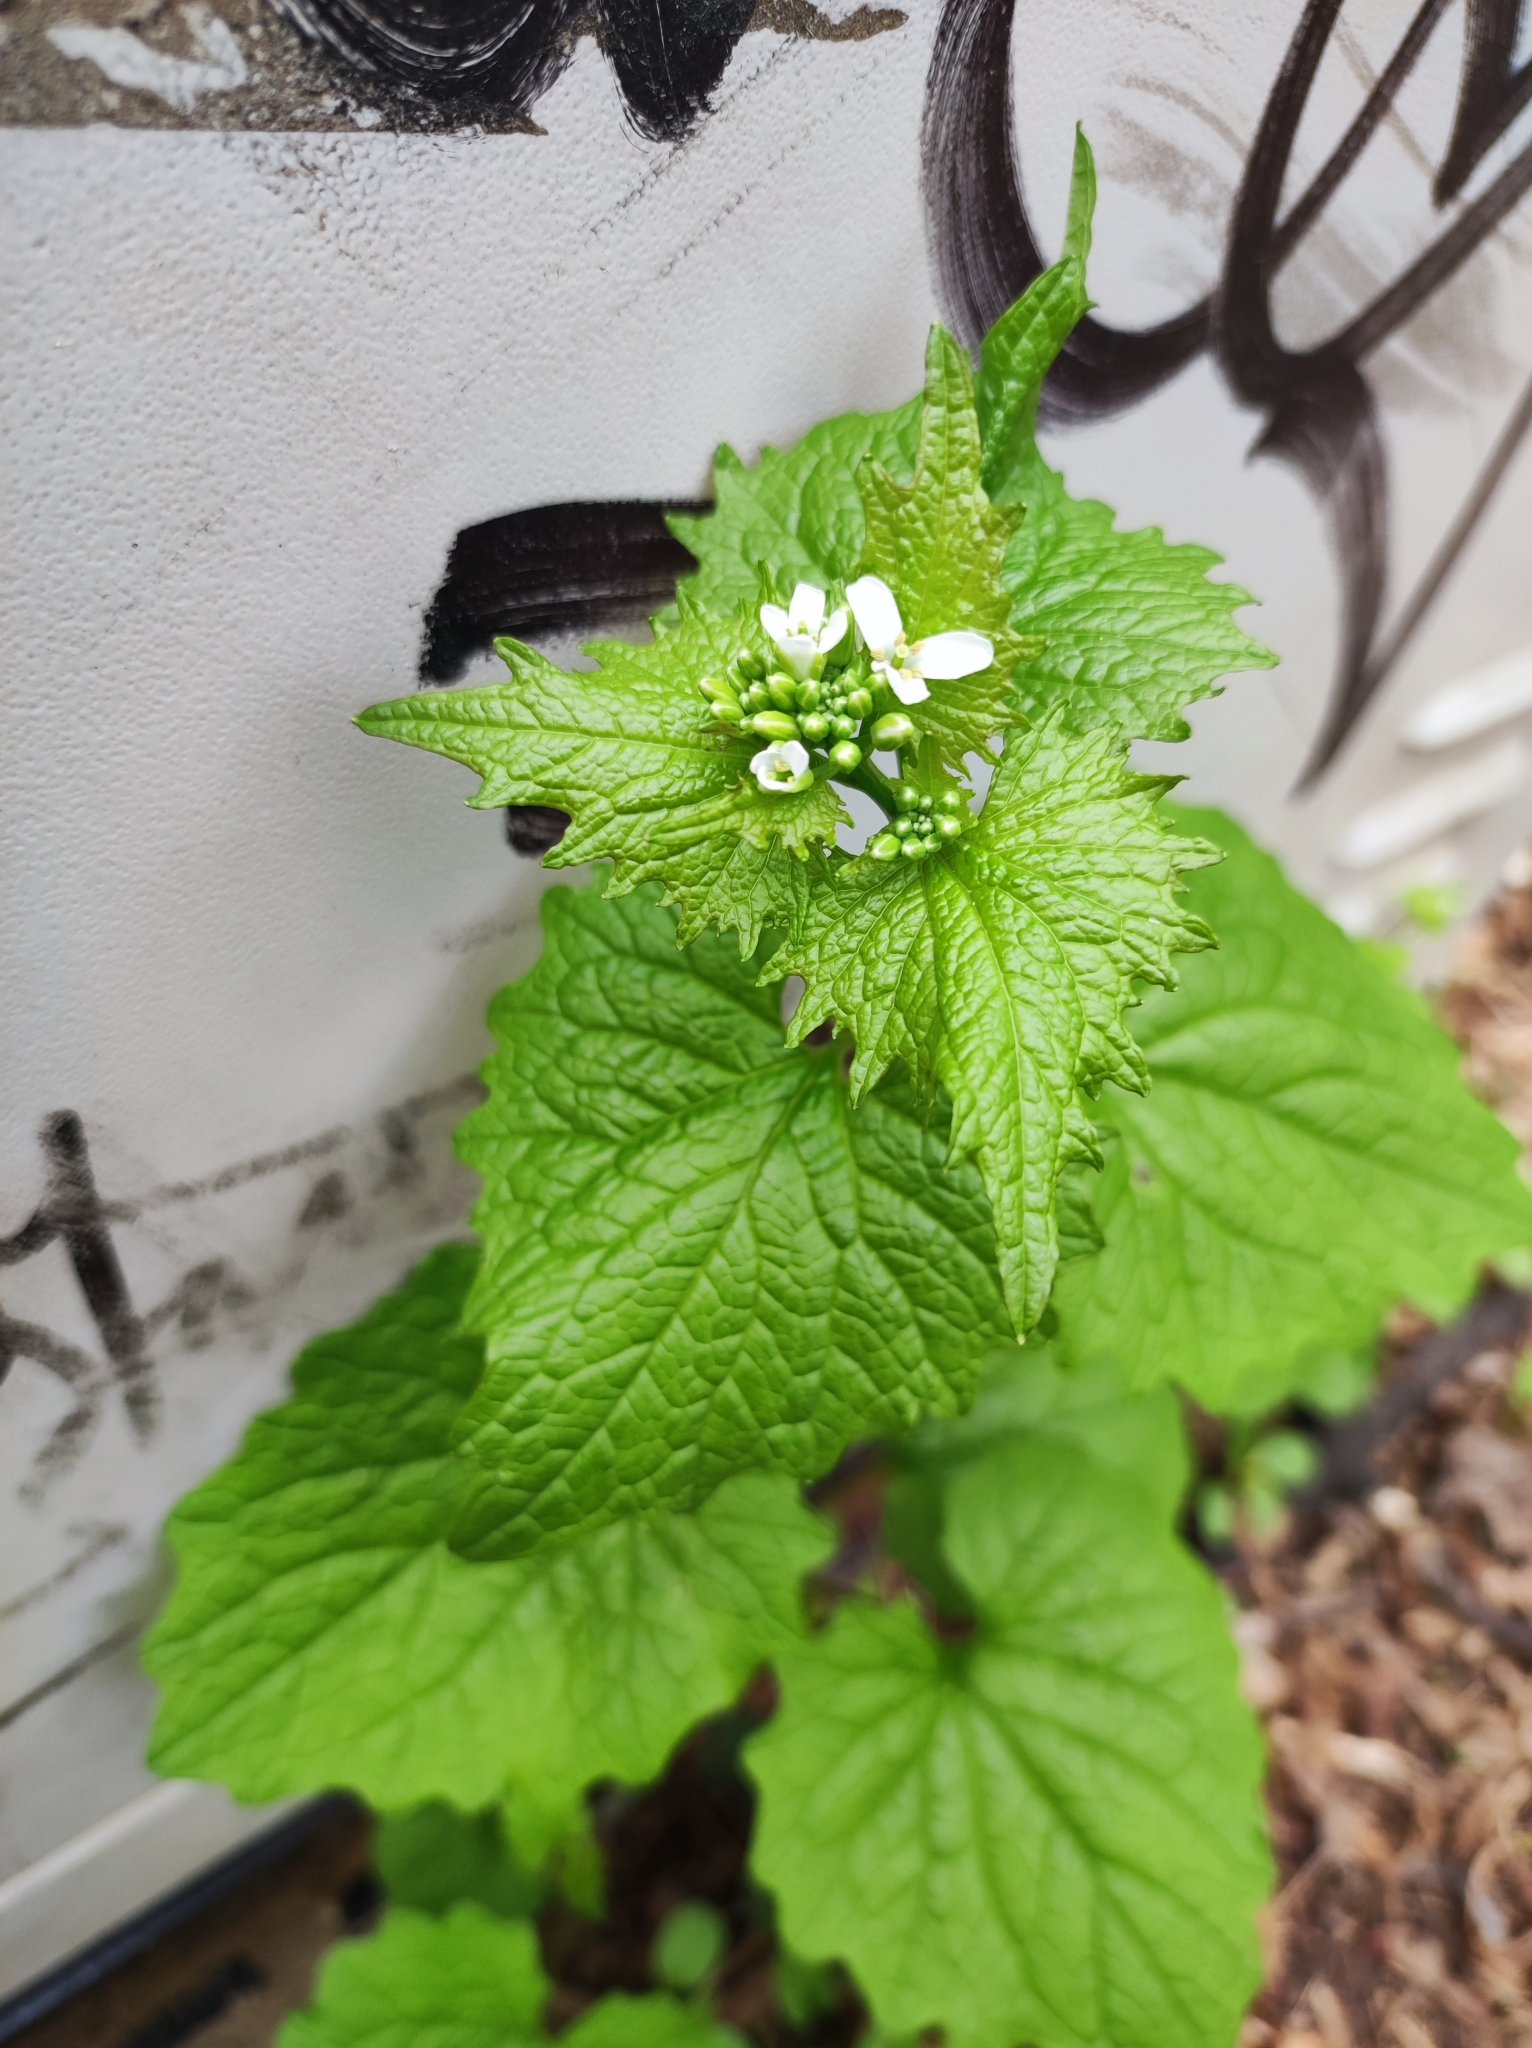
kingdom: Plantae
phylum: Tracheophyta
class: Magnoliopsida
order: Brassicales
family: Brassicaceae
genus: Alliaria
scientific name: Alliaria petiolata
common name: Garlic mustard
